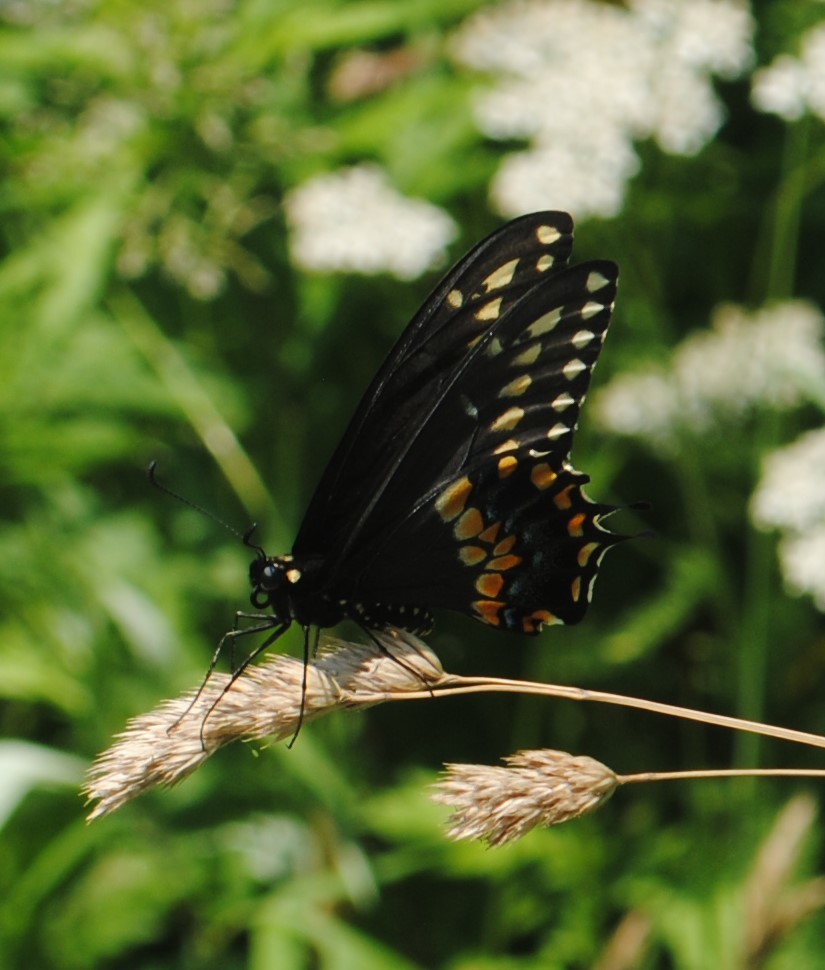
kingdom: Animalia
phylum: Arthropoda
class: Insecta
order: Lepidoptera
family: Papilionidae
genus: Papilio
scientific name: Papilio polyxenes
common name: Black swallowtail
